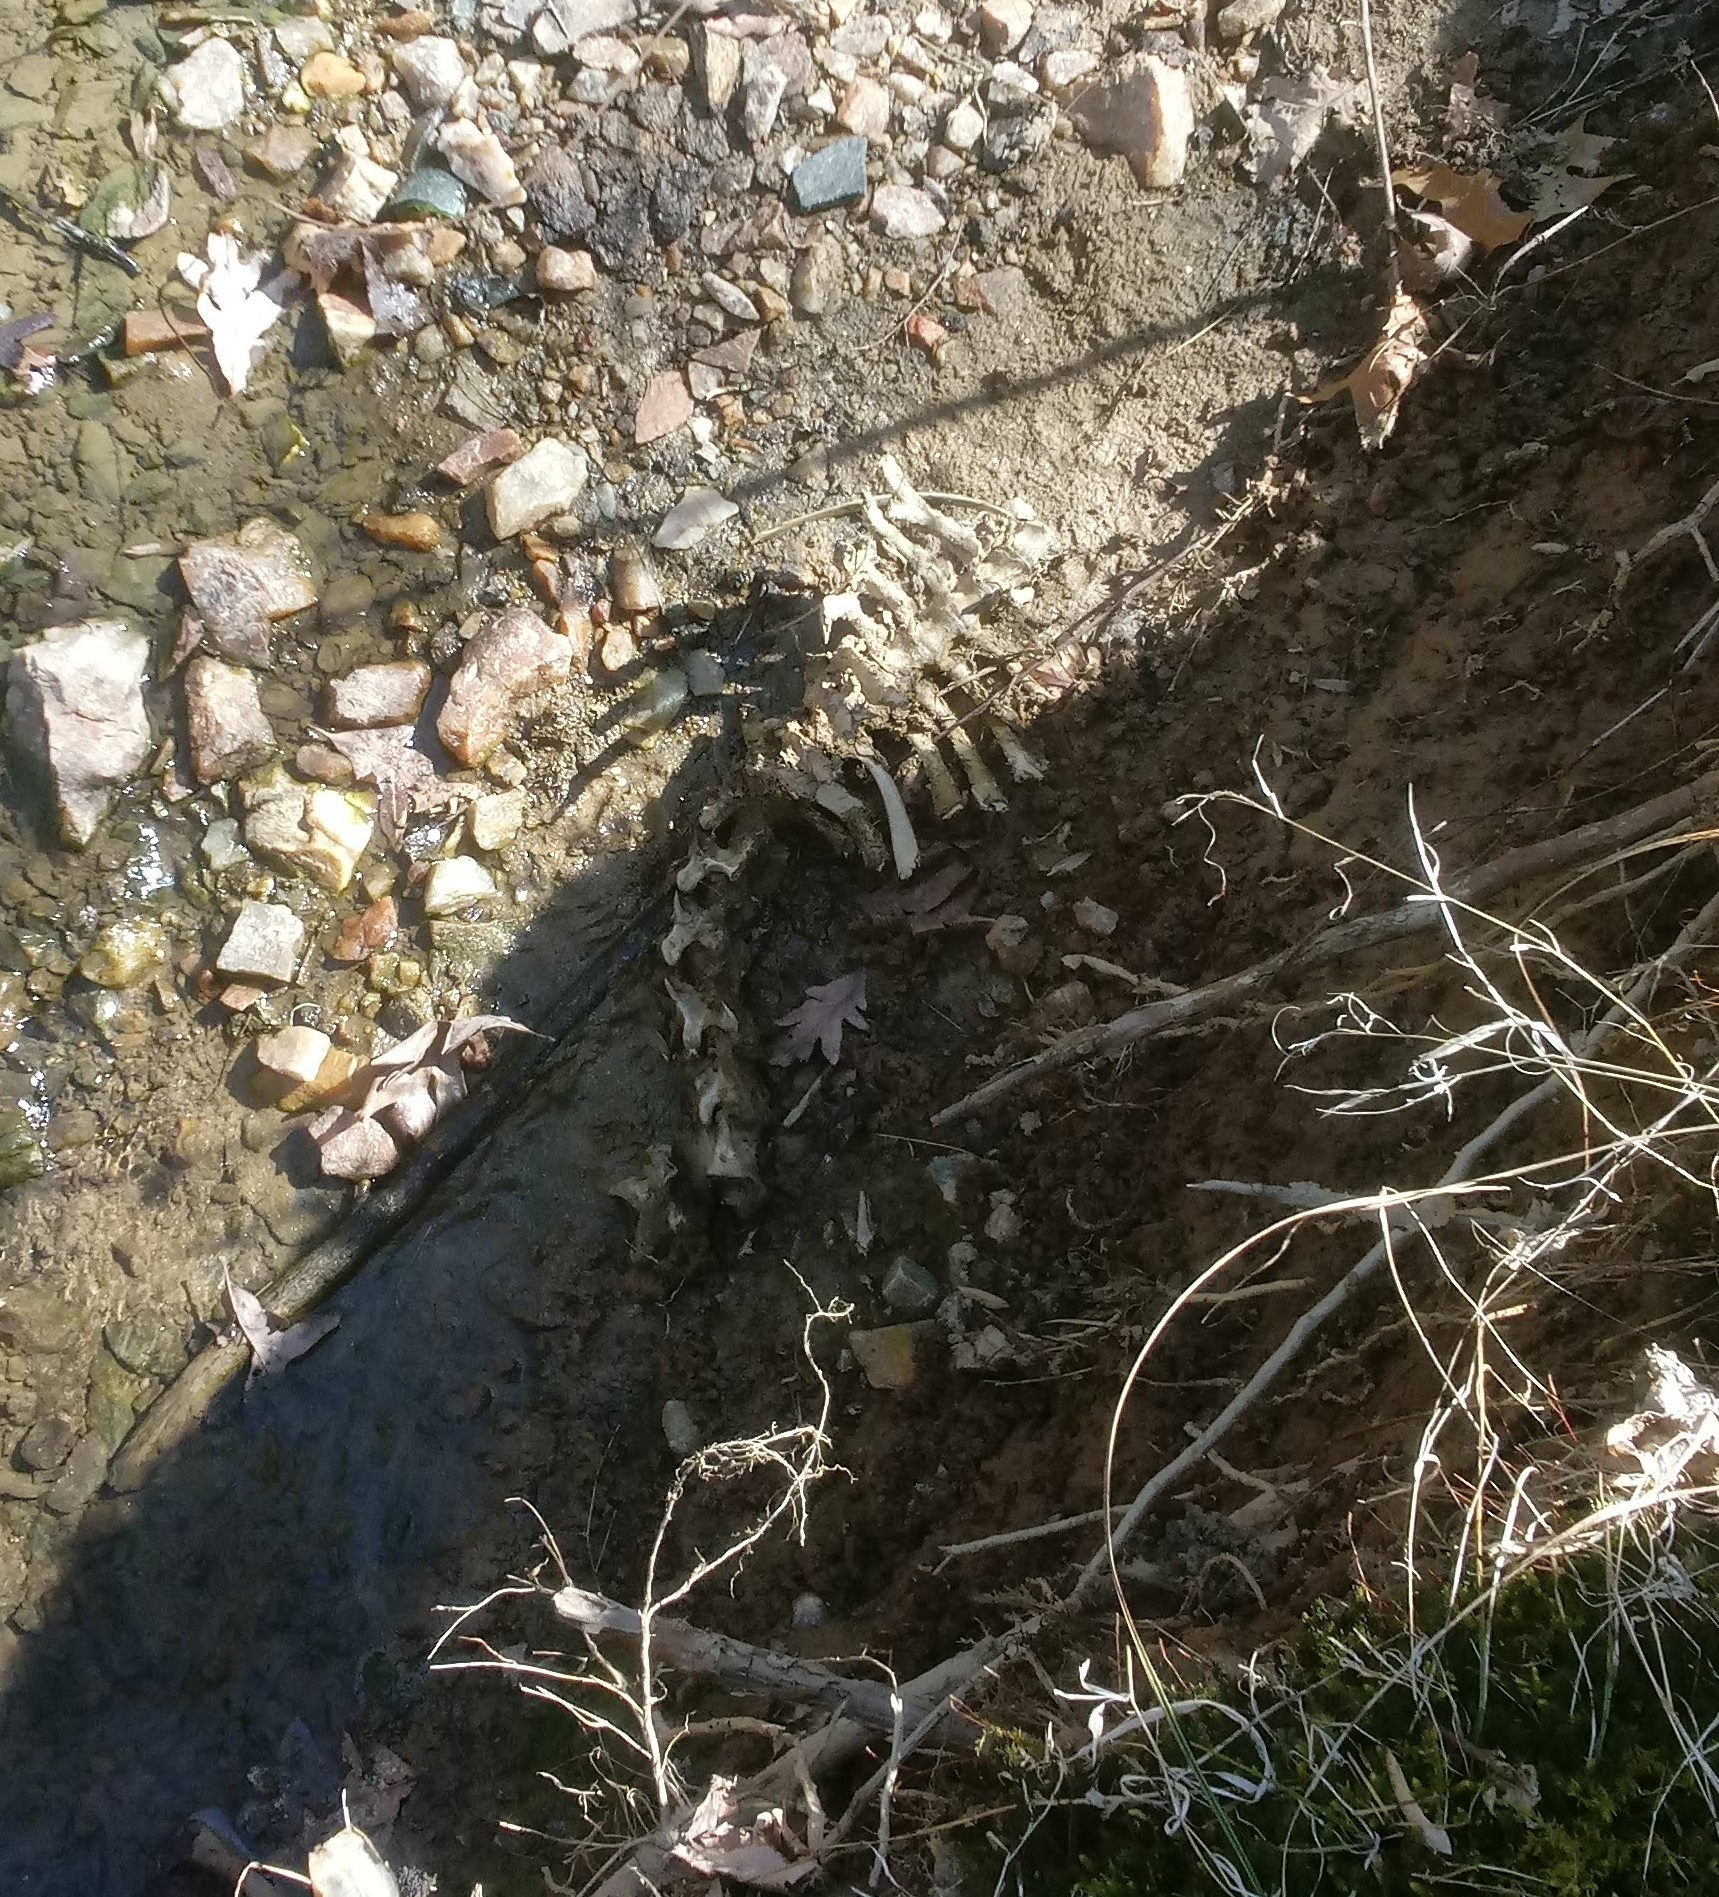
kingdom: Animalia
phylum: Chordata
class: Mammalia
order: Artiodactyla
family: Cervidae
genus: Odocoileus
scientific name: Odocoileus virginianus
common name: White-tailed deer
